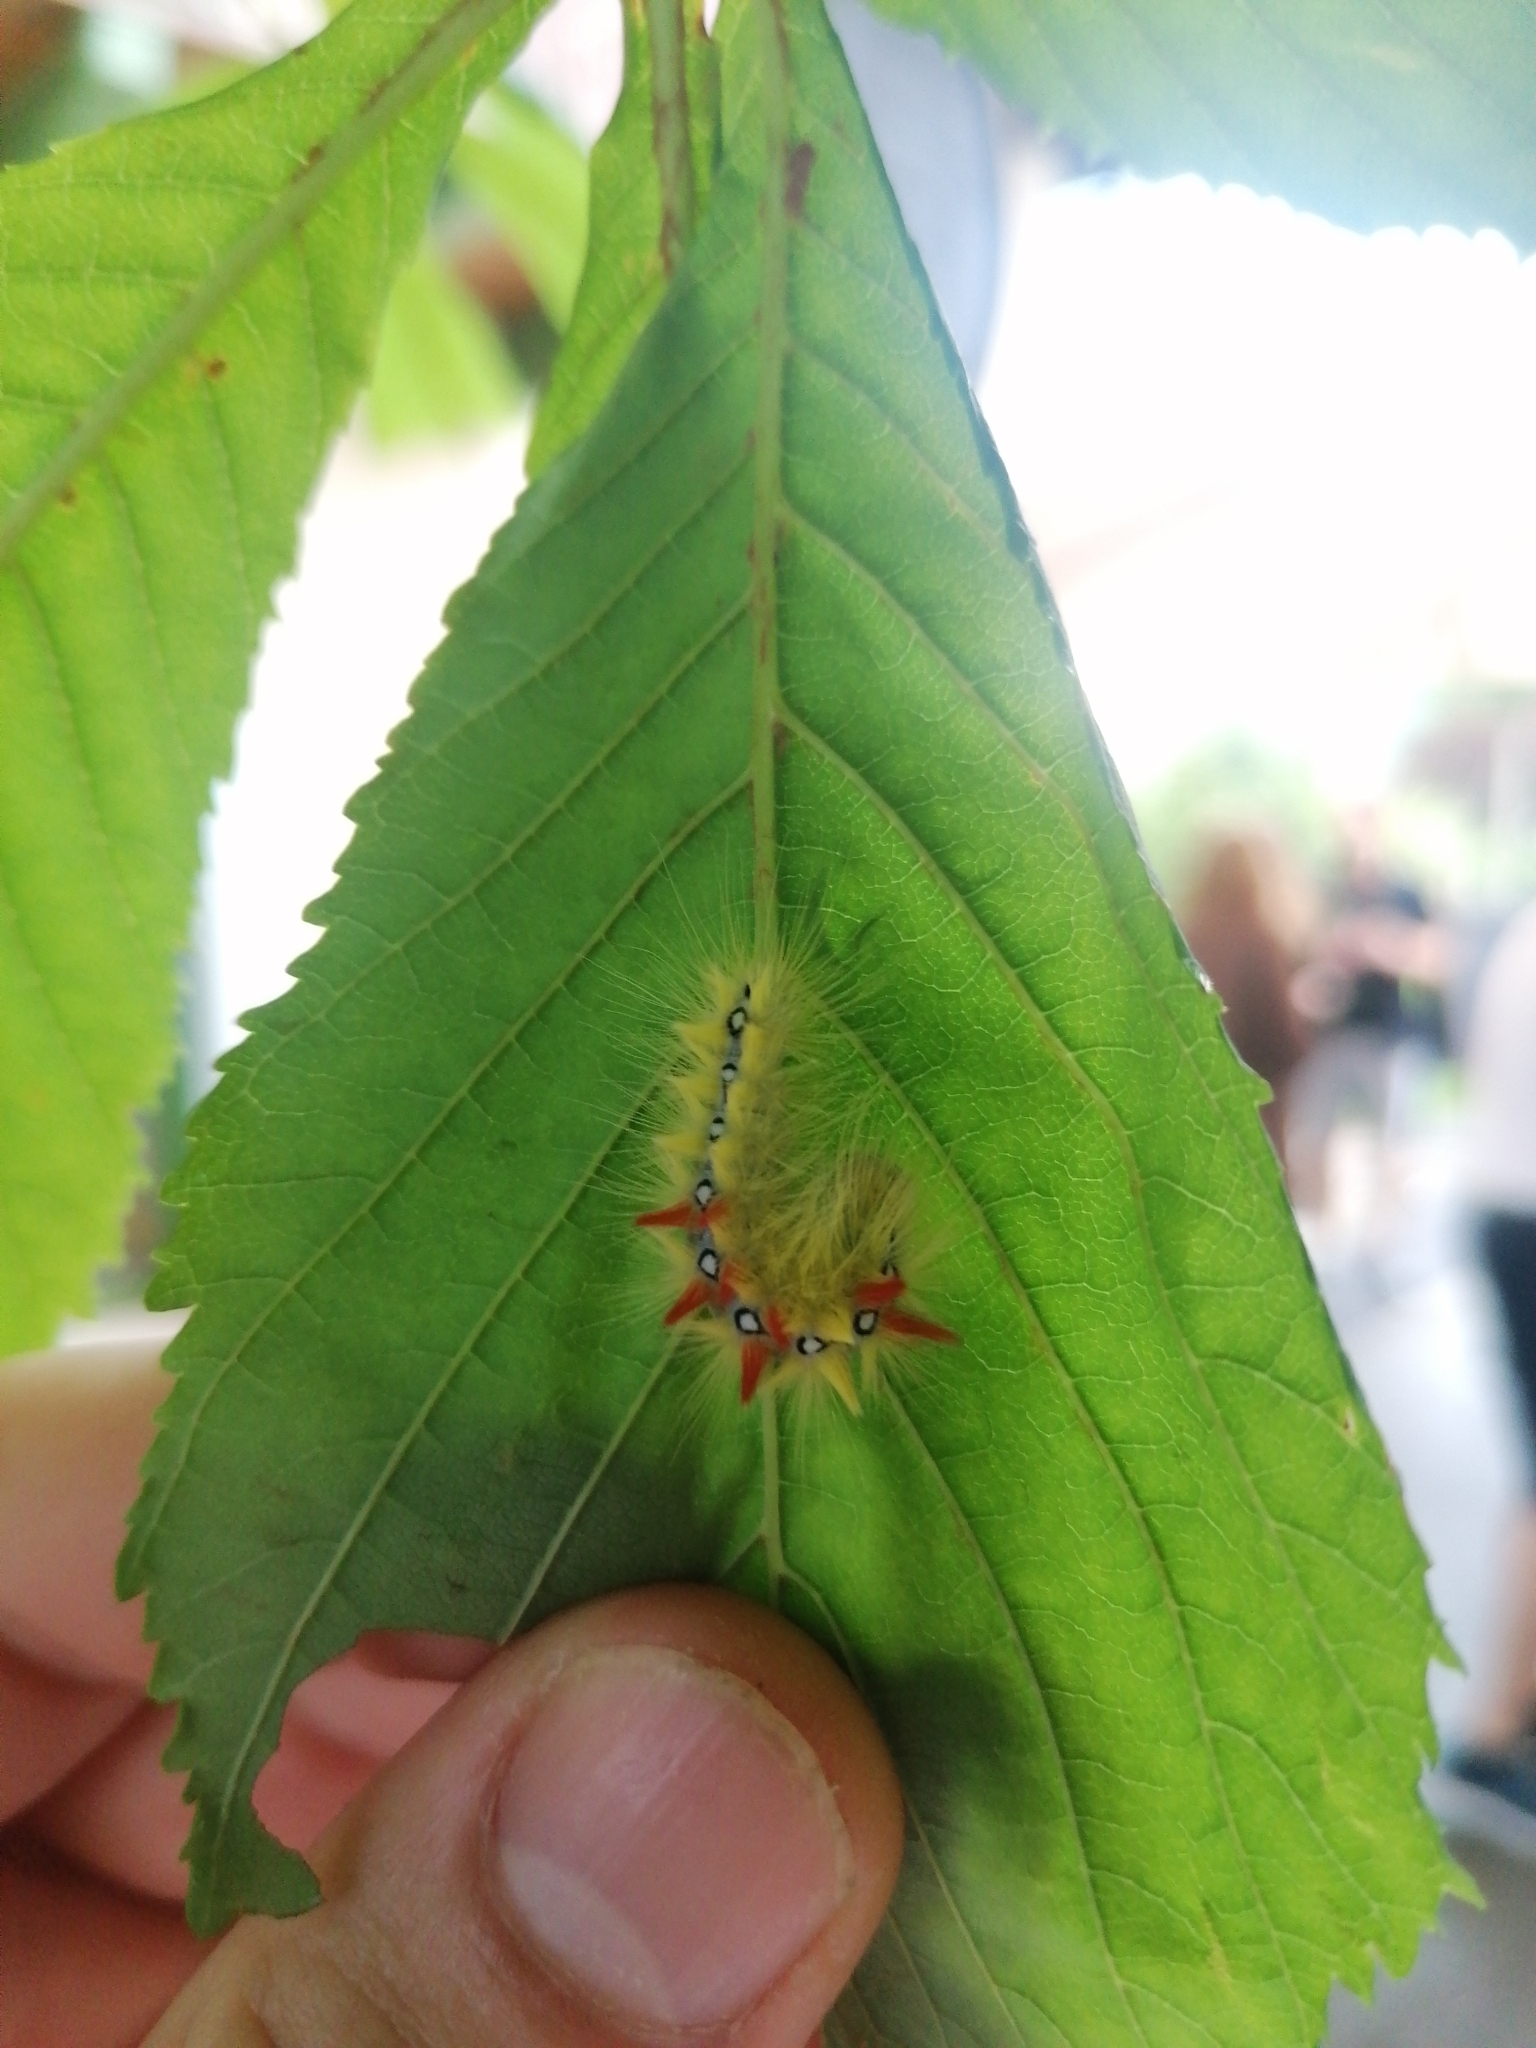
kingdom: Animalia
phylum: Arthropoda
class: Insecta
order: Lepidoptera
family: Noctuidae
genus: Acronicta
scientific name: Acronicta aceris
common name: Sycamore
